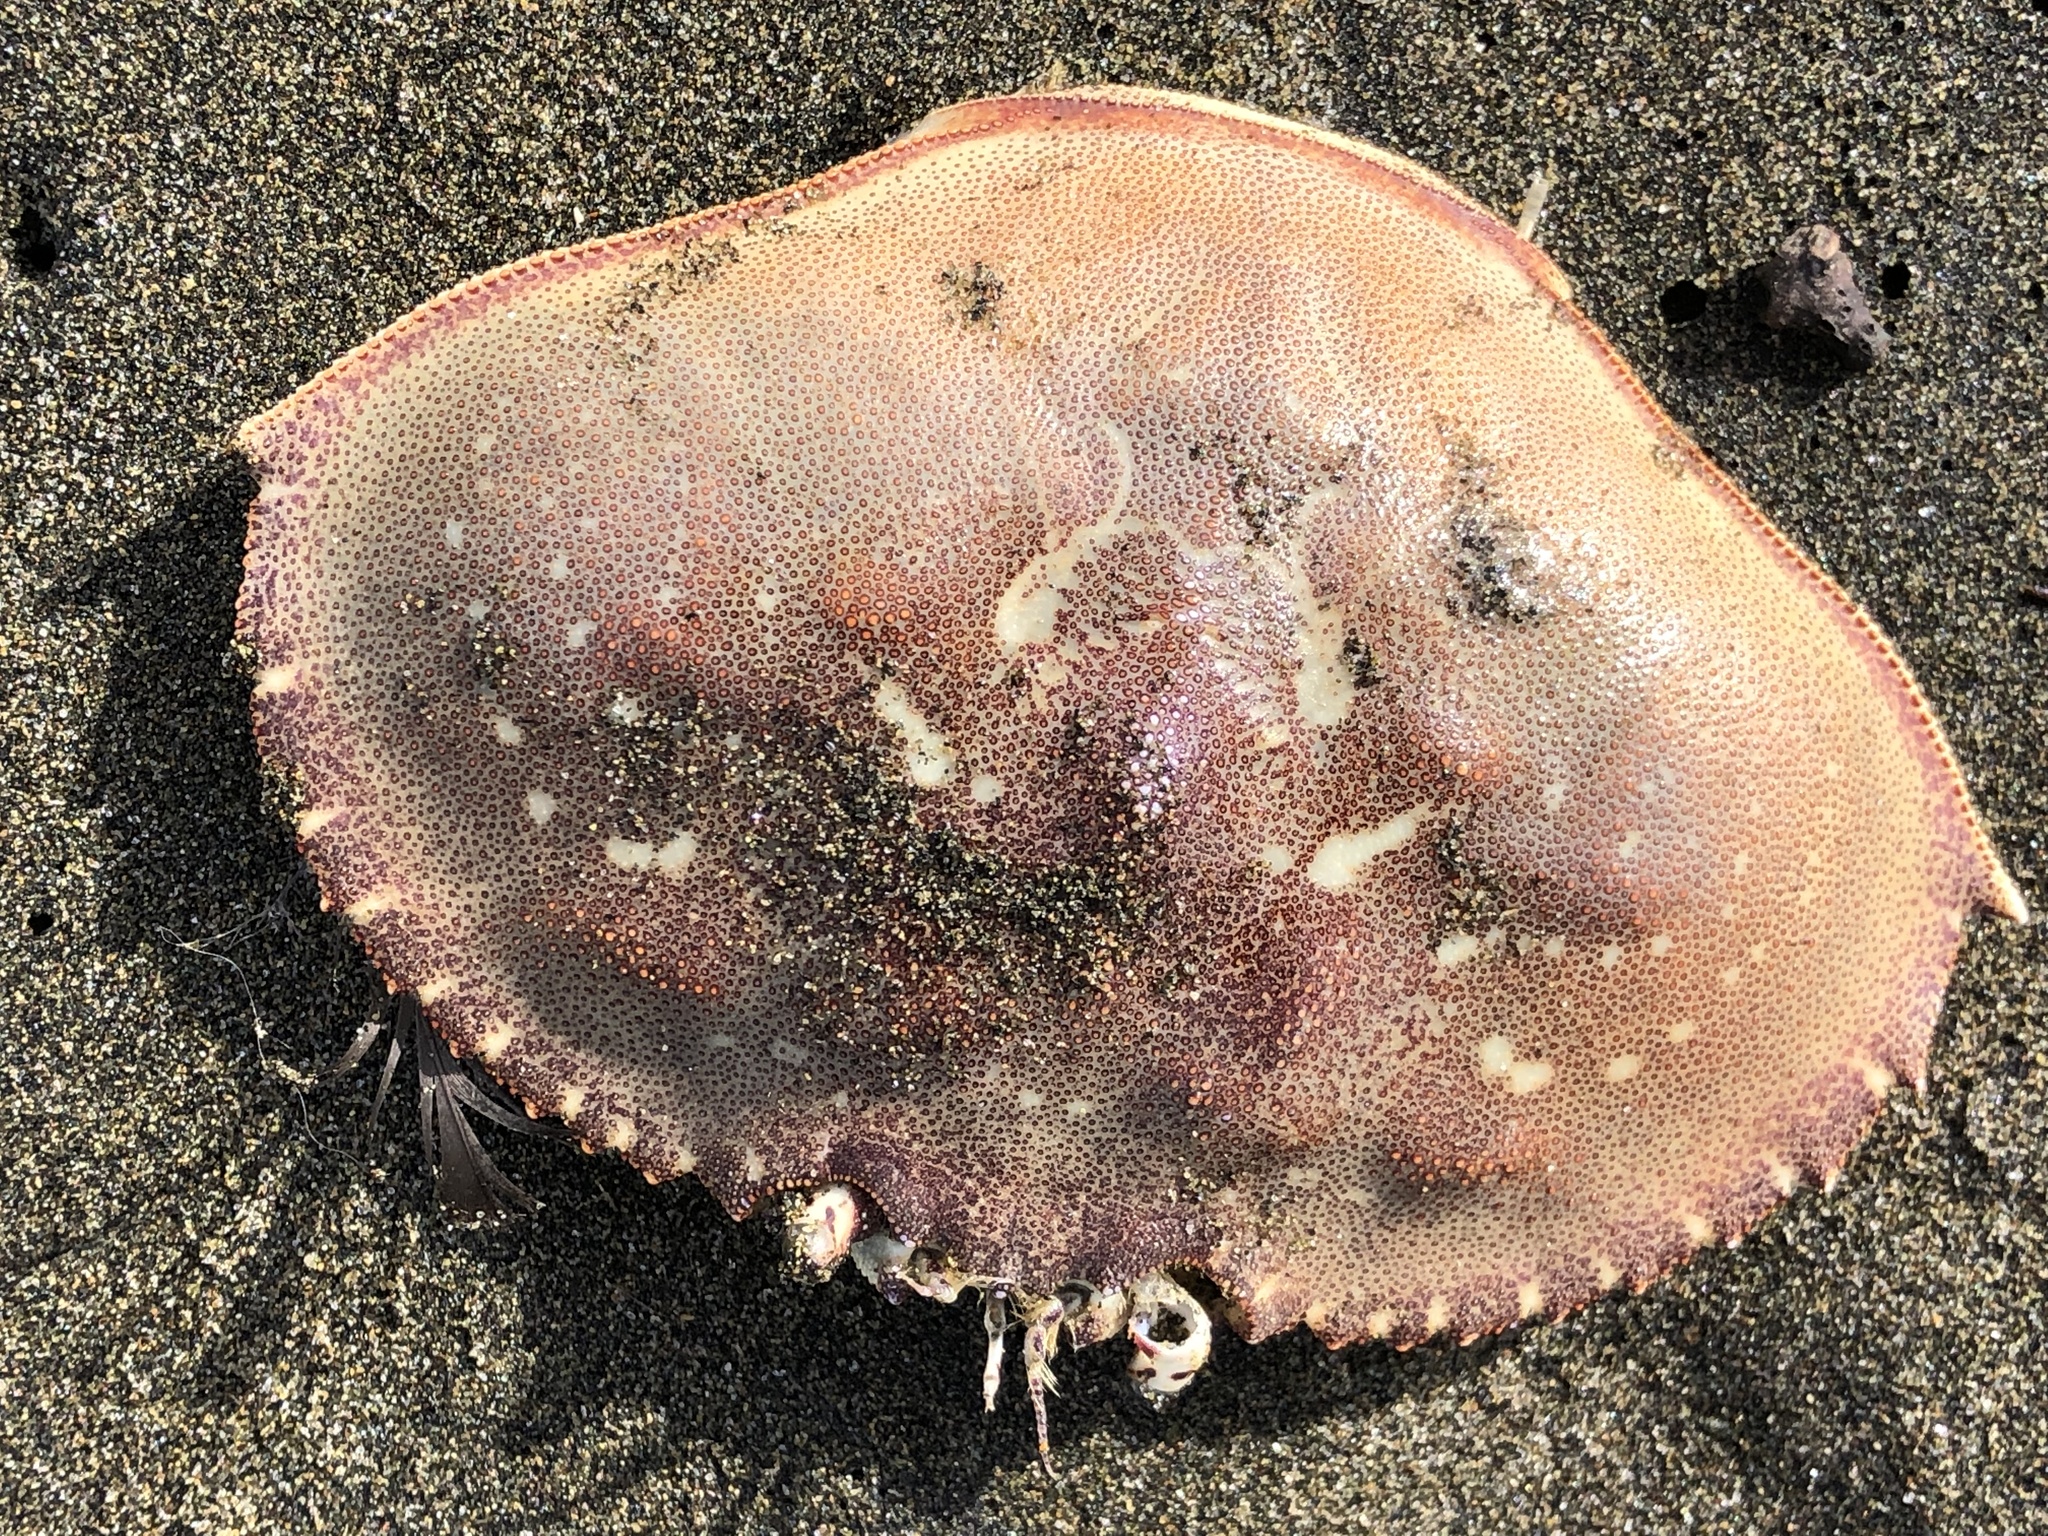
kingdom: Animalia
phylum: Arthropoda
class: Malacostraca
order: Decapoda
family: Cancridae
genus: Metacarcinus
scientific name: Metacarcinus magister
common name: Californian crab
